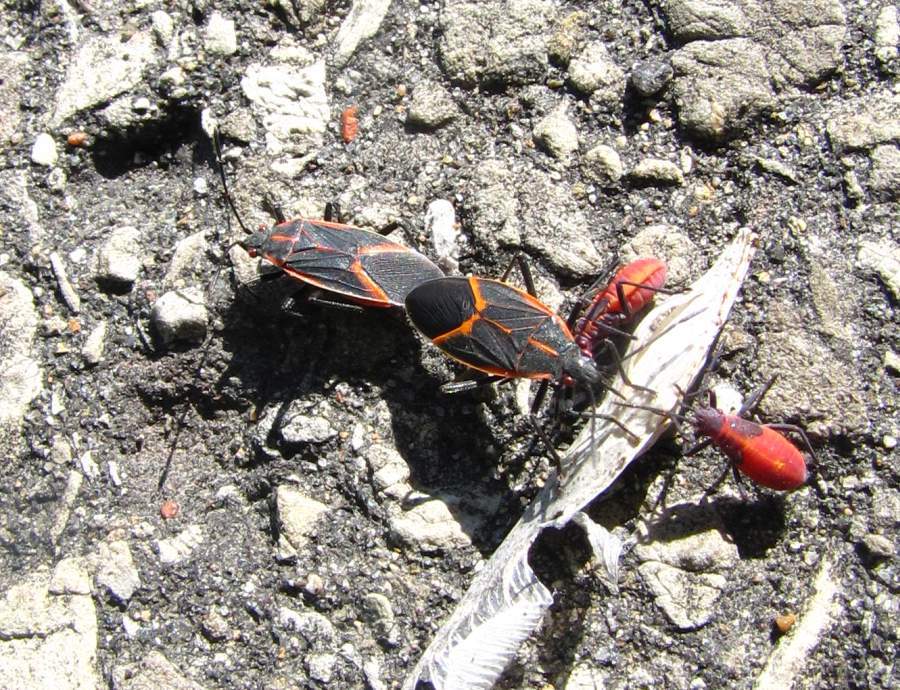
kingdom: Animalia
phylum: Arthropoda
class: Insecta
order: Hemiptera
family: Rhopalidae
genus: Boisea
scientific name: Boisea trivittata
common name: Boxelder bug
